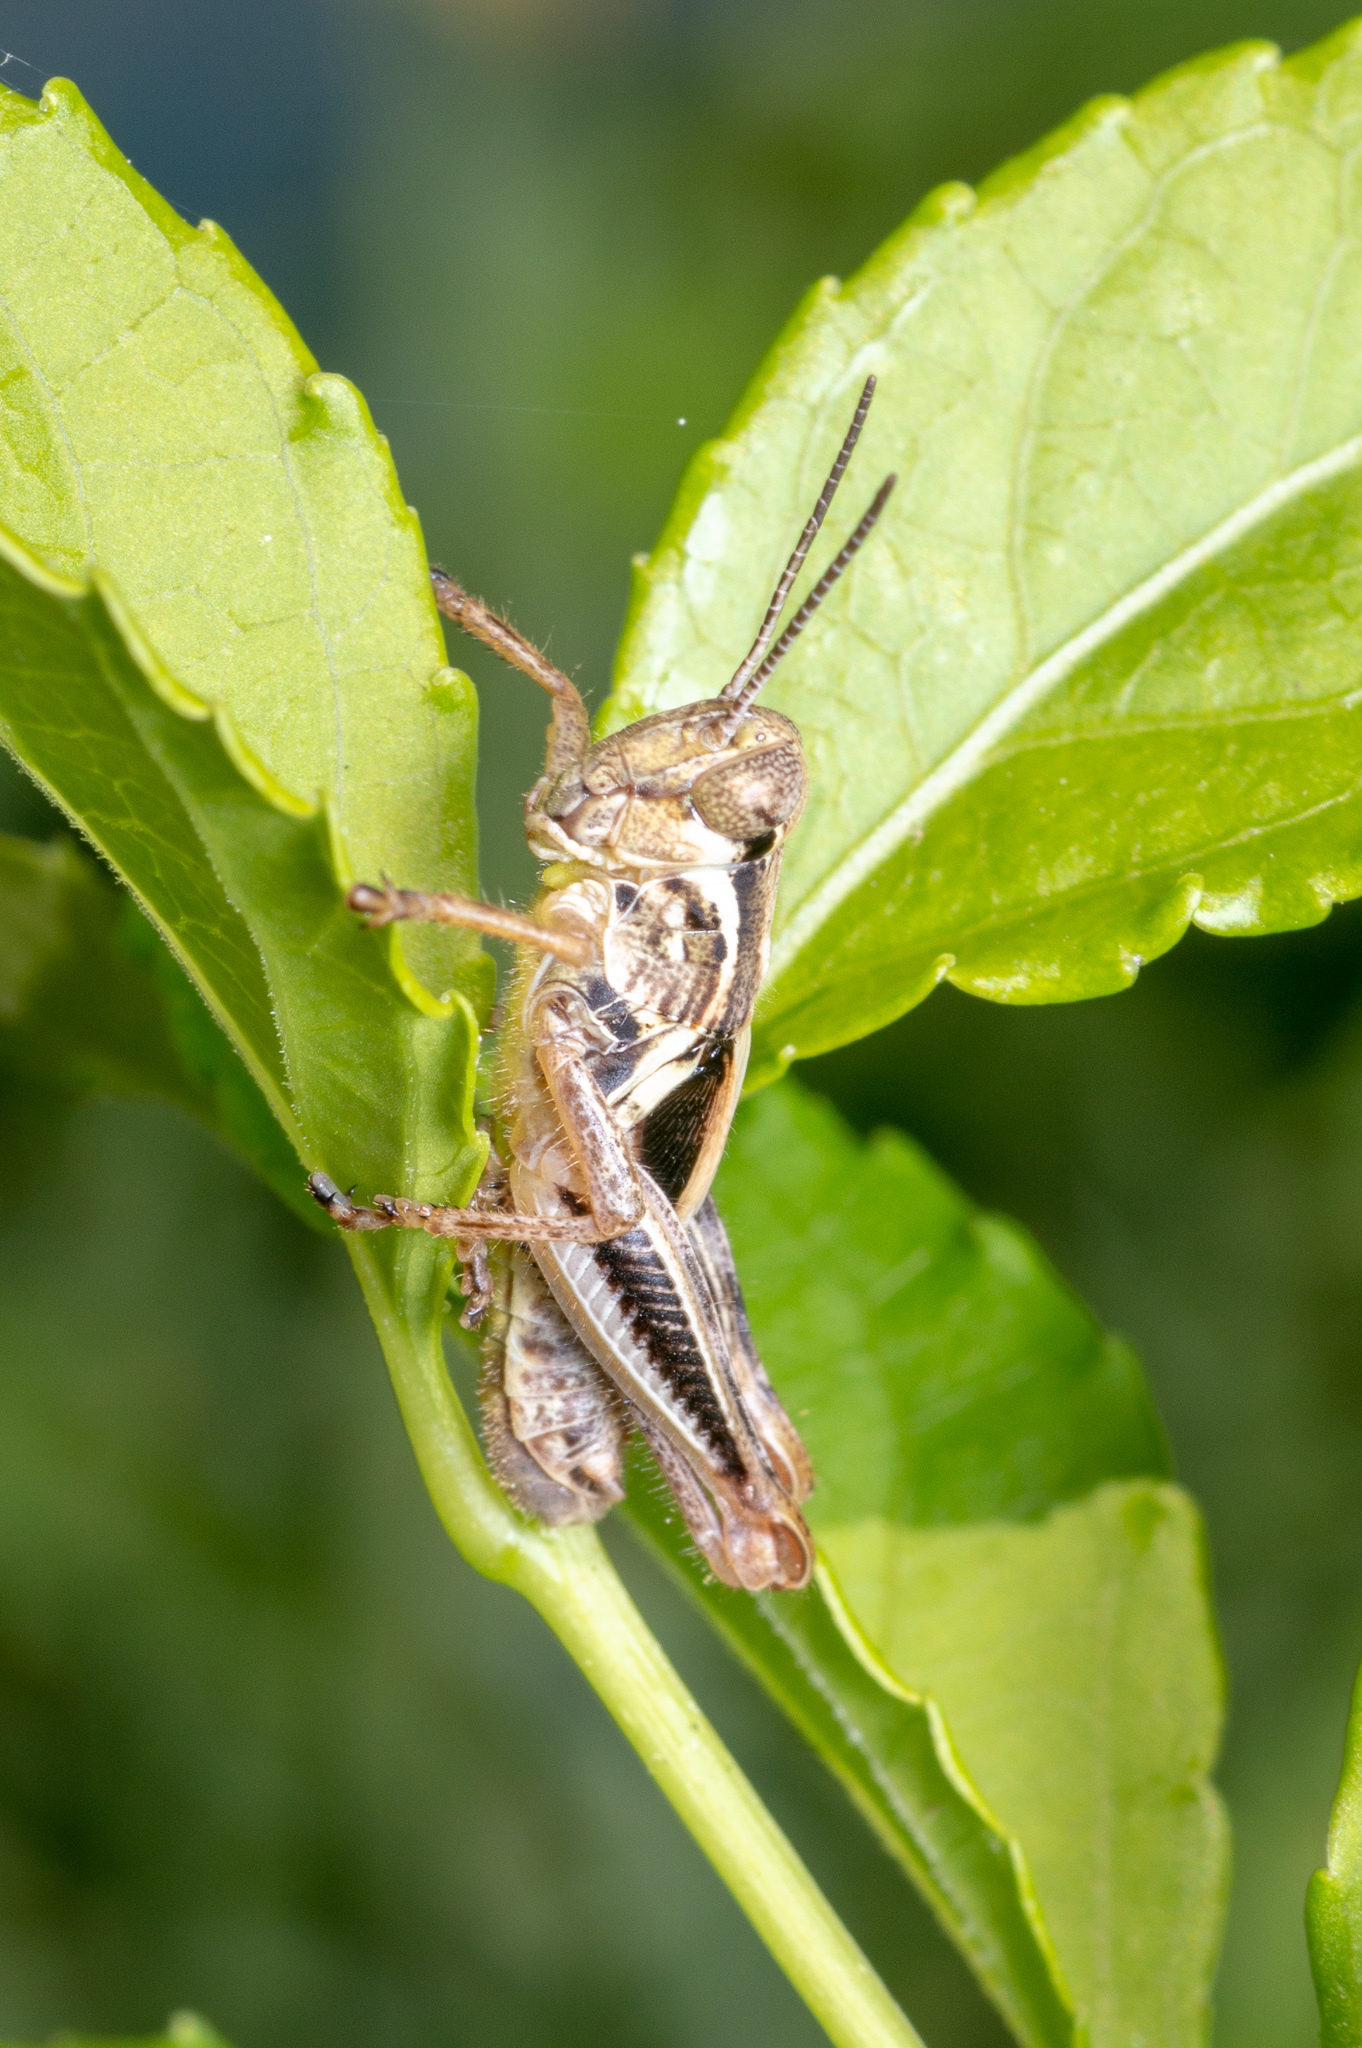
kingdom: Animalia
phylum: Arthropoda
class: Insecta
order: Orthoptera
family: Acrididae
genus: Melanoplus
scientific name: Melanoplus
